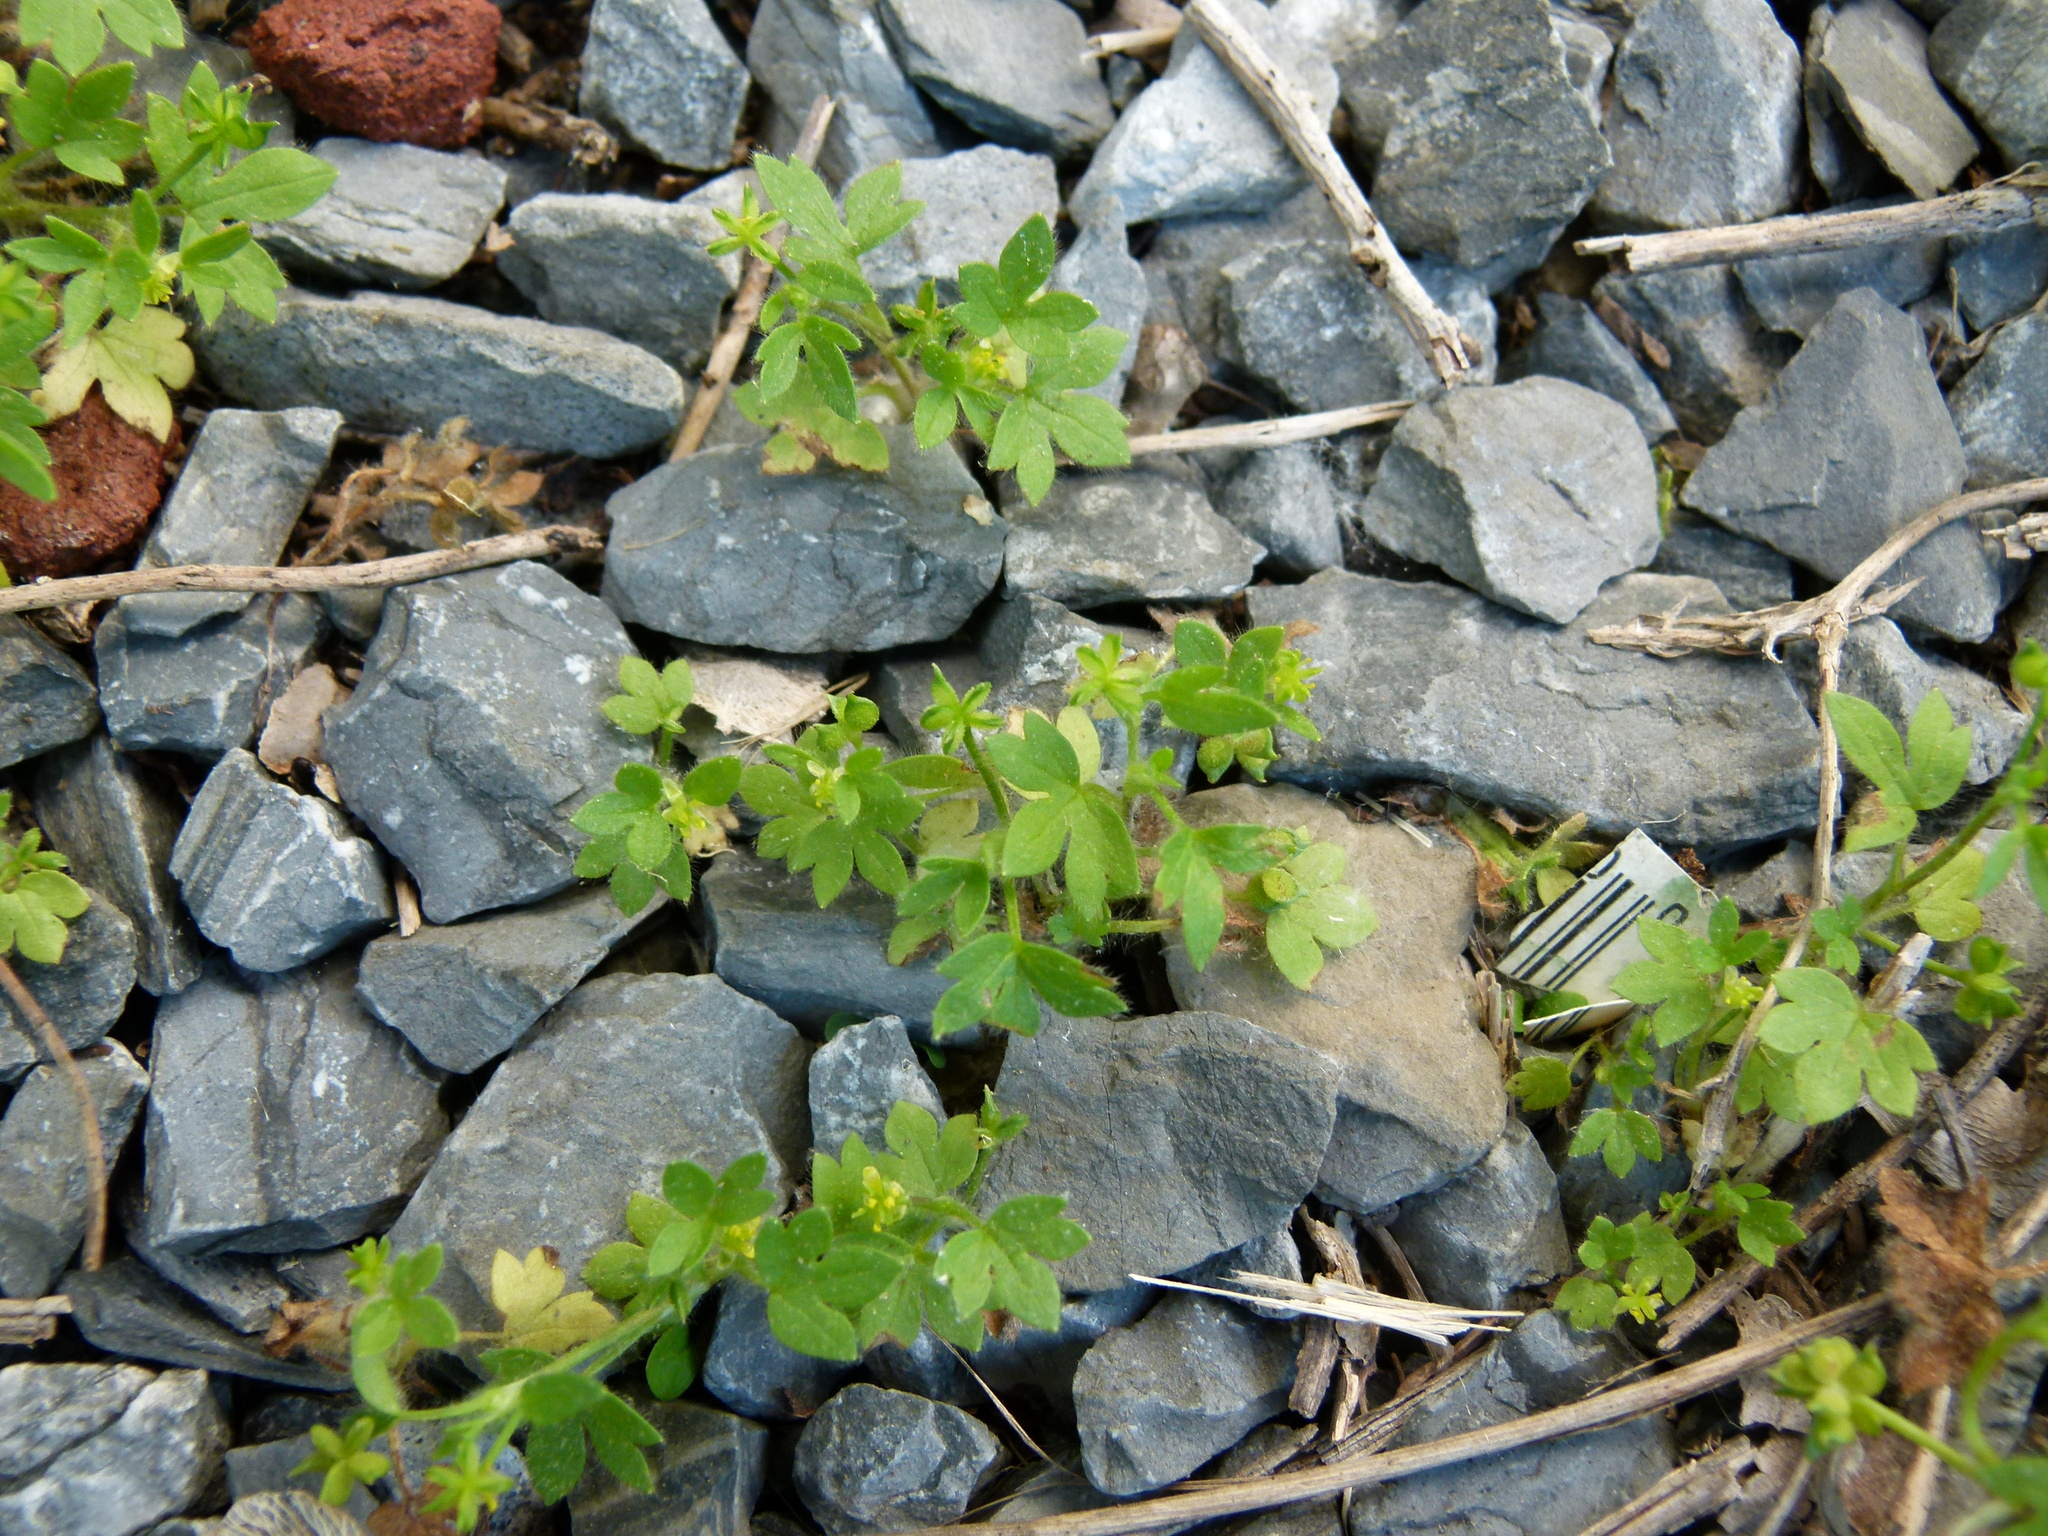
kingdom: Plantae
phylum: Tracheophyta
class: Magnoliopsida
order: Ranunculales
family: Ranunculaceae
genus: Ranunculus
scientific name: Ranunculus parviflorus
